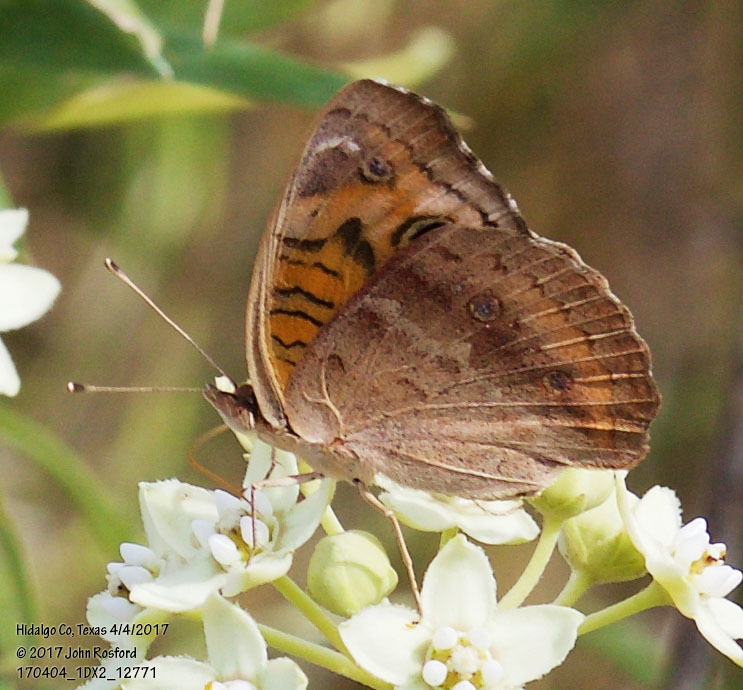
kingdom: Animalia
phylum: Arthropoda
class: Insecta
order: Lepidoptera
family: Nymphalidae
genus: Junonia
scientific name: Junonia coenia
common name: Common buckeye
